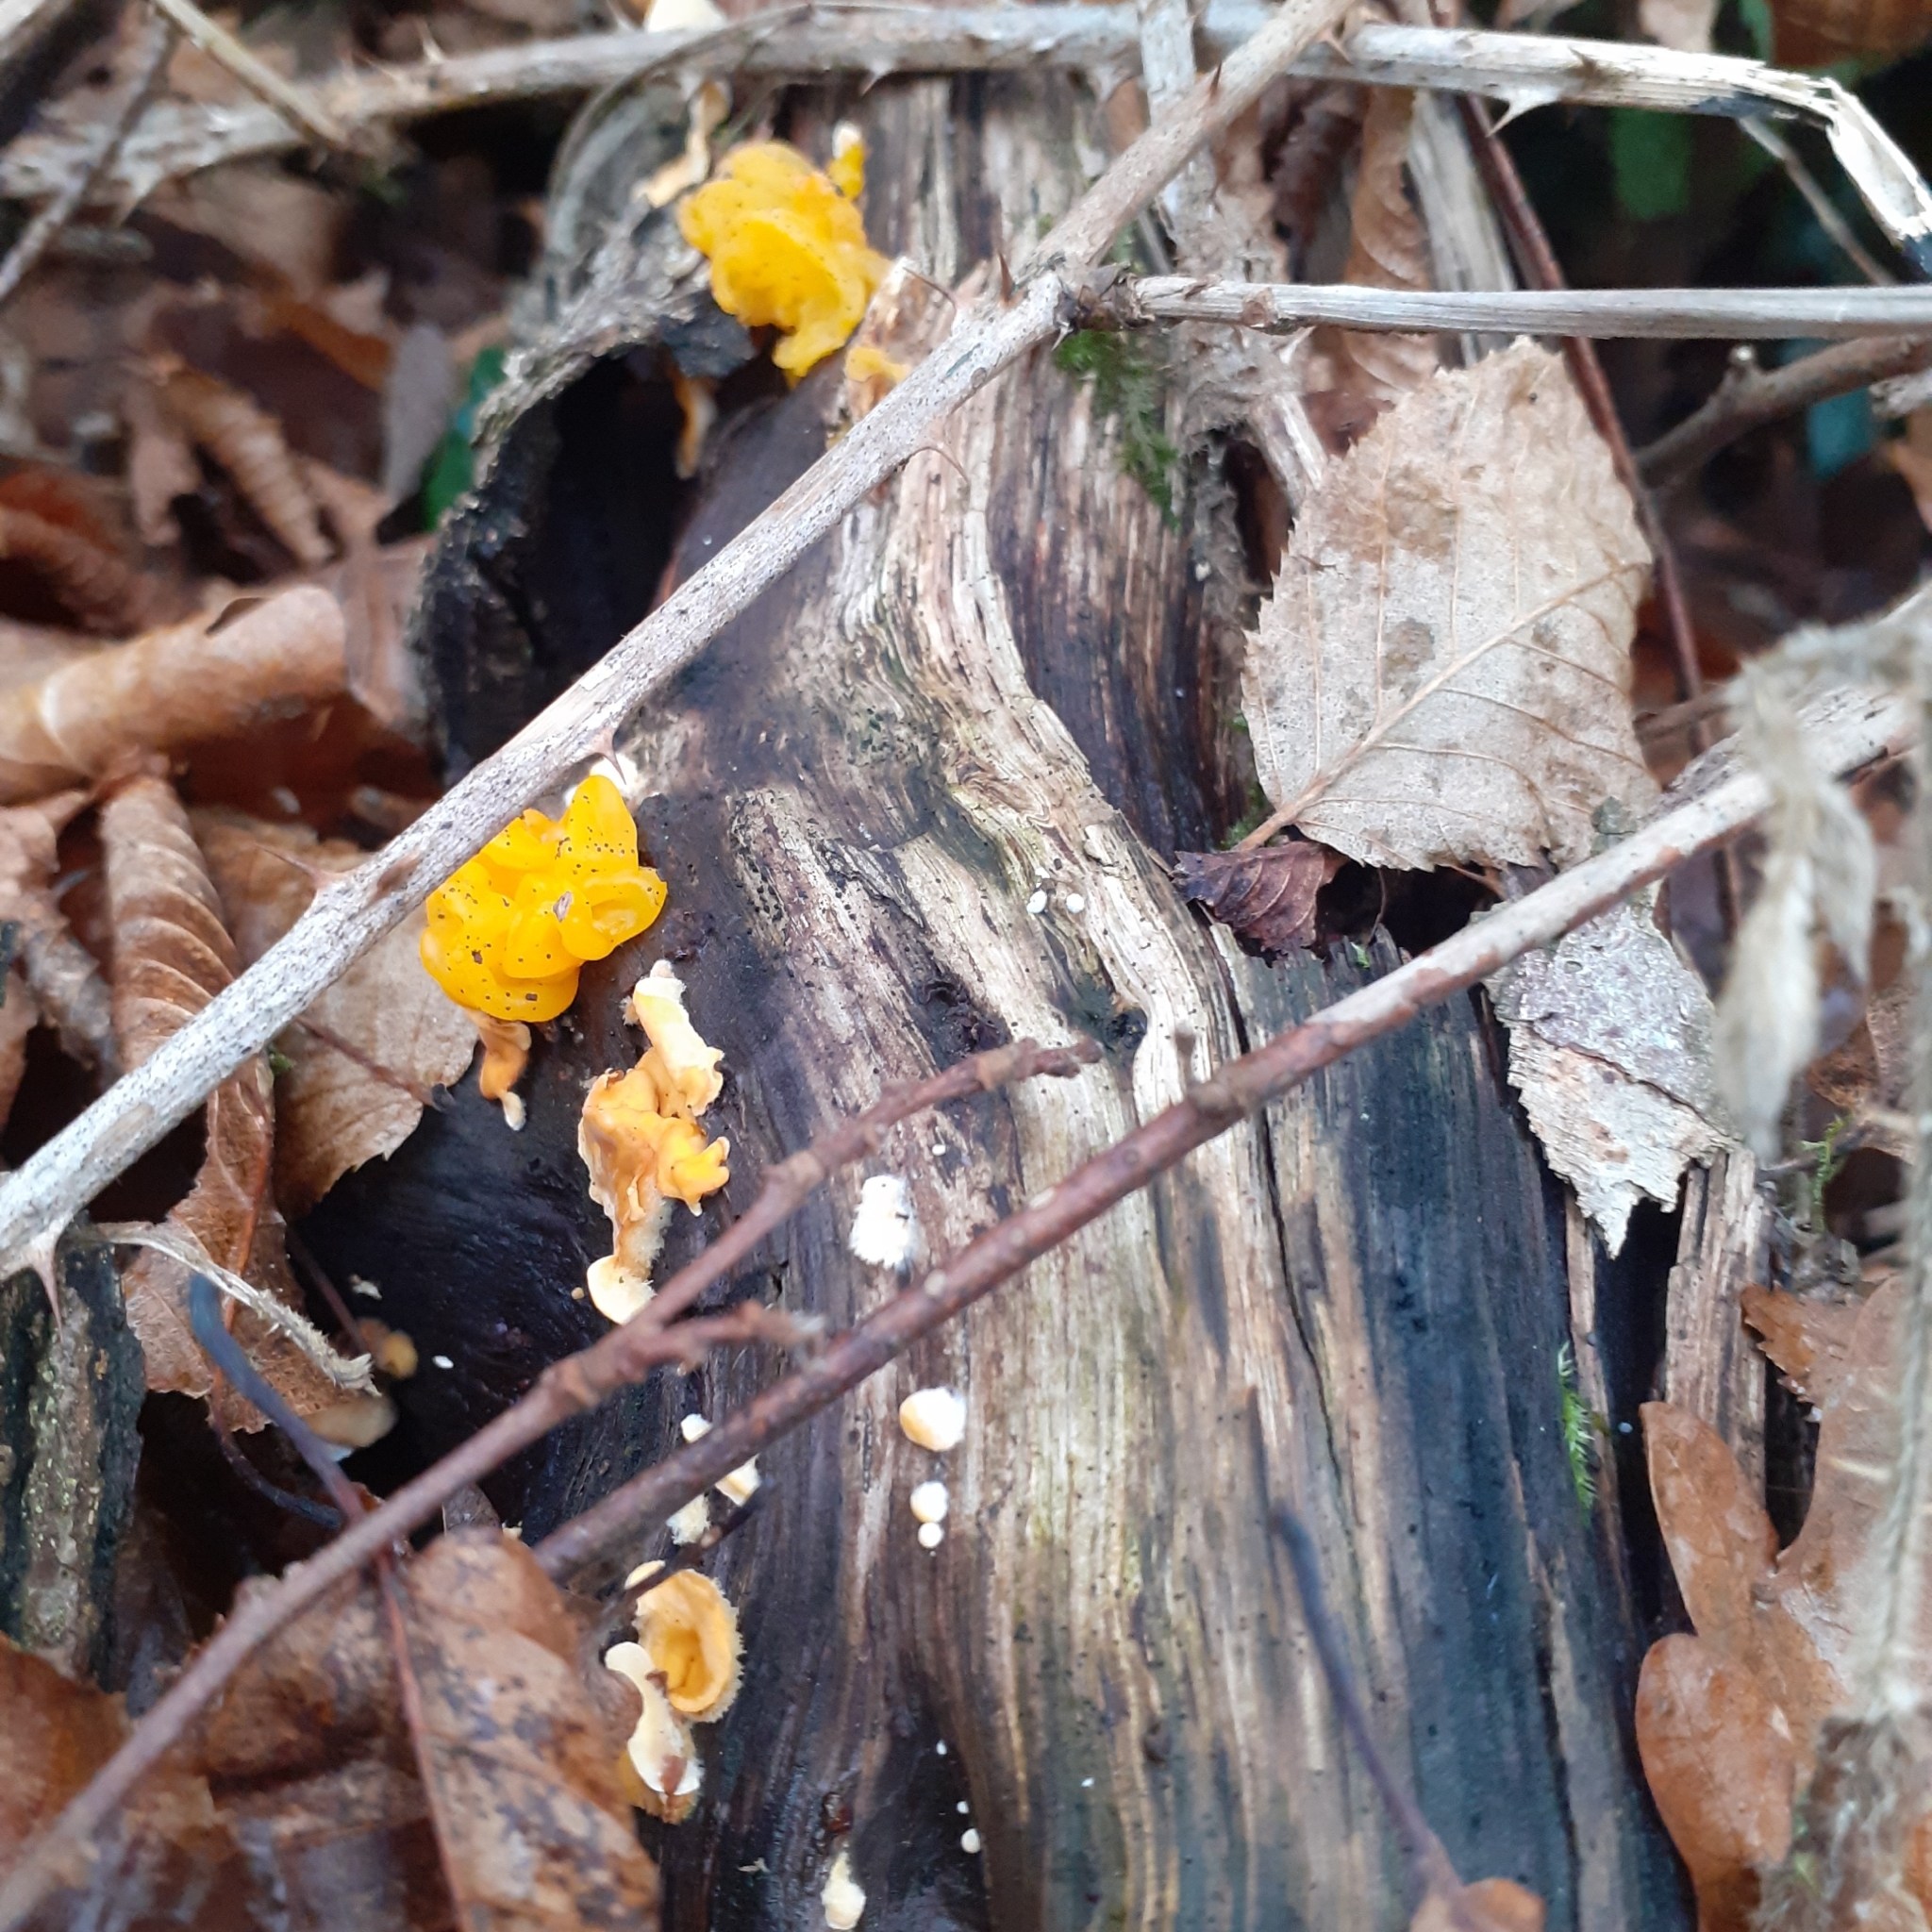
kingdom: Fungi
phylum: Basidiomycota
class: Tremellomycetes
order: Tremellales
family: Naemateliaceae
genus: Naematelia
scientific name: Naematelia aurantia
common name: Golden ear
